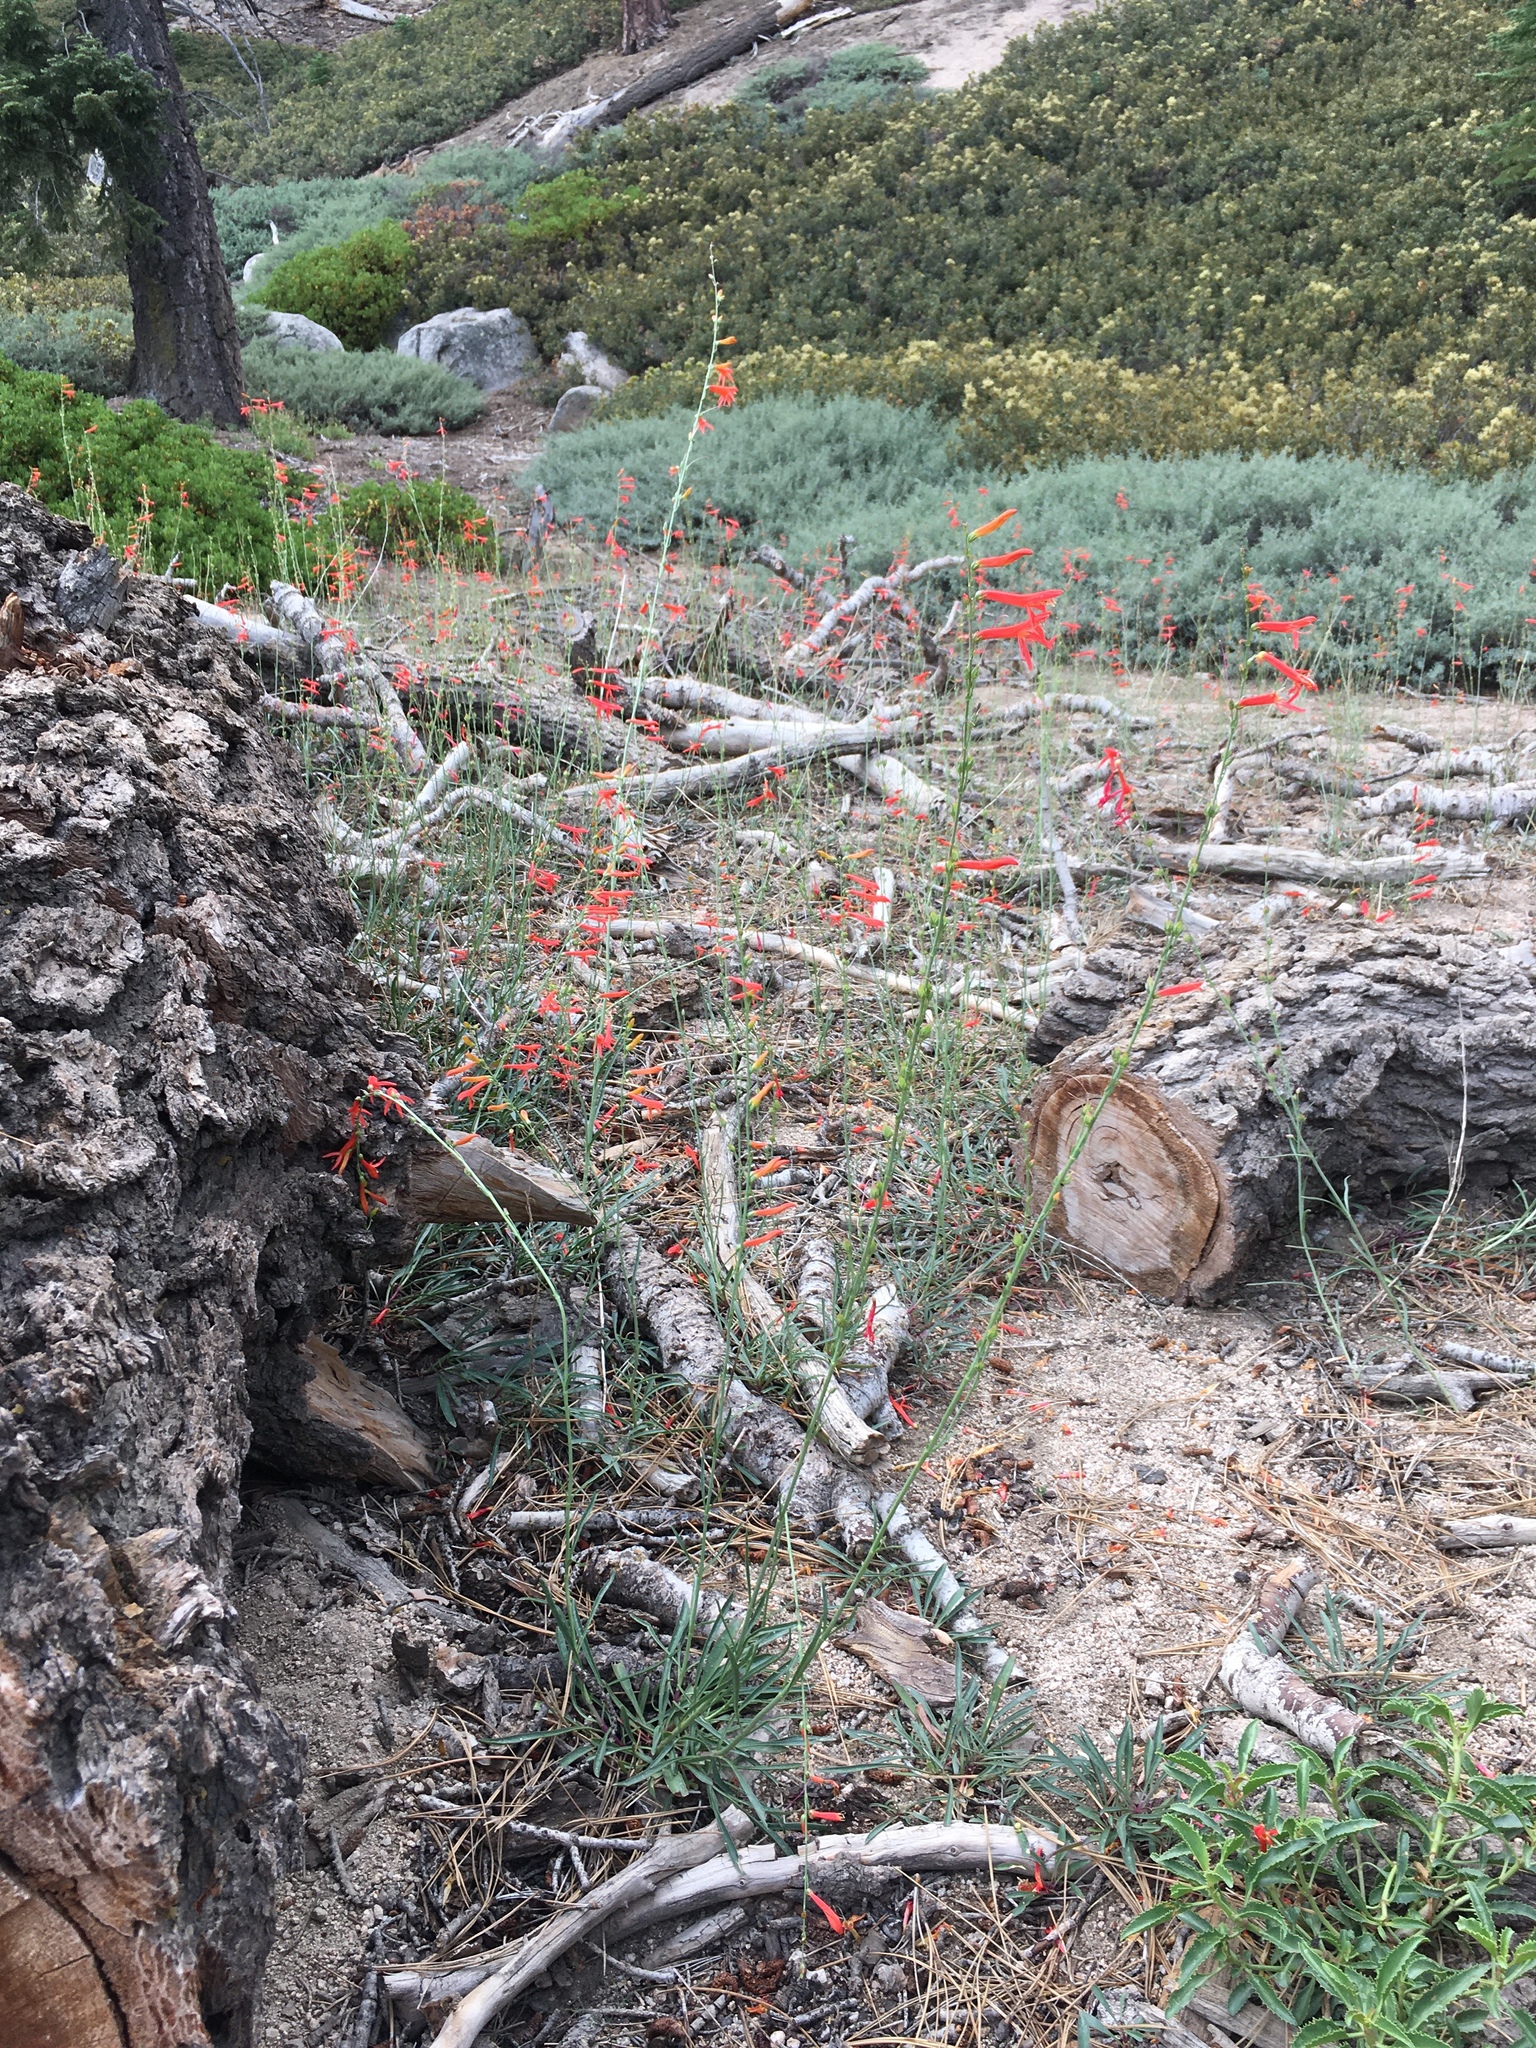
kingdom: Plantae
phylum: Tracheophyta
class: Magnoliopsida
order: Lamiales
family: Plantaginaceae
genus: Penstemon
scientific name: Penstemon labrosus
